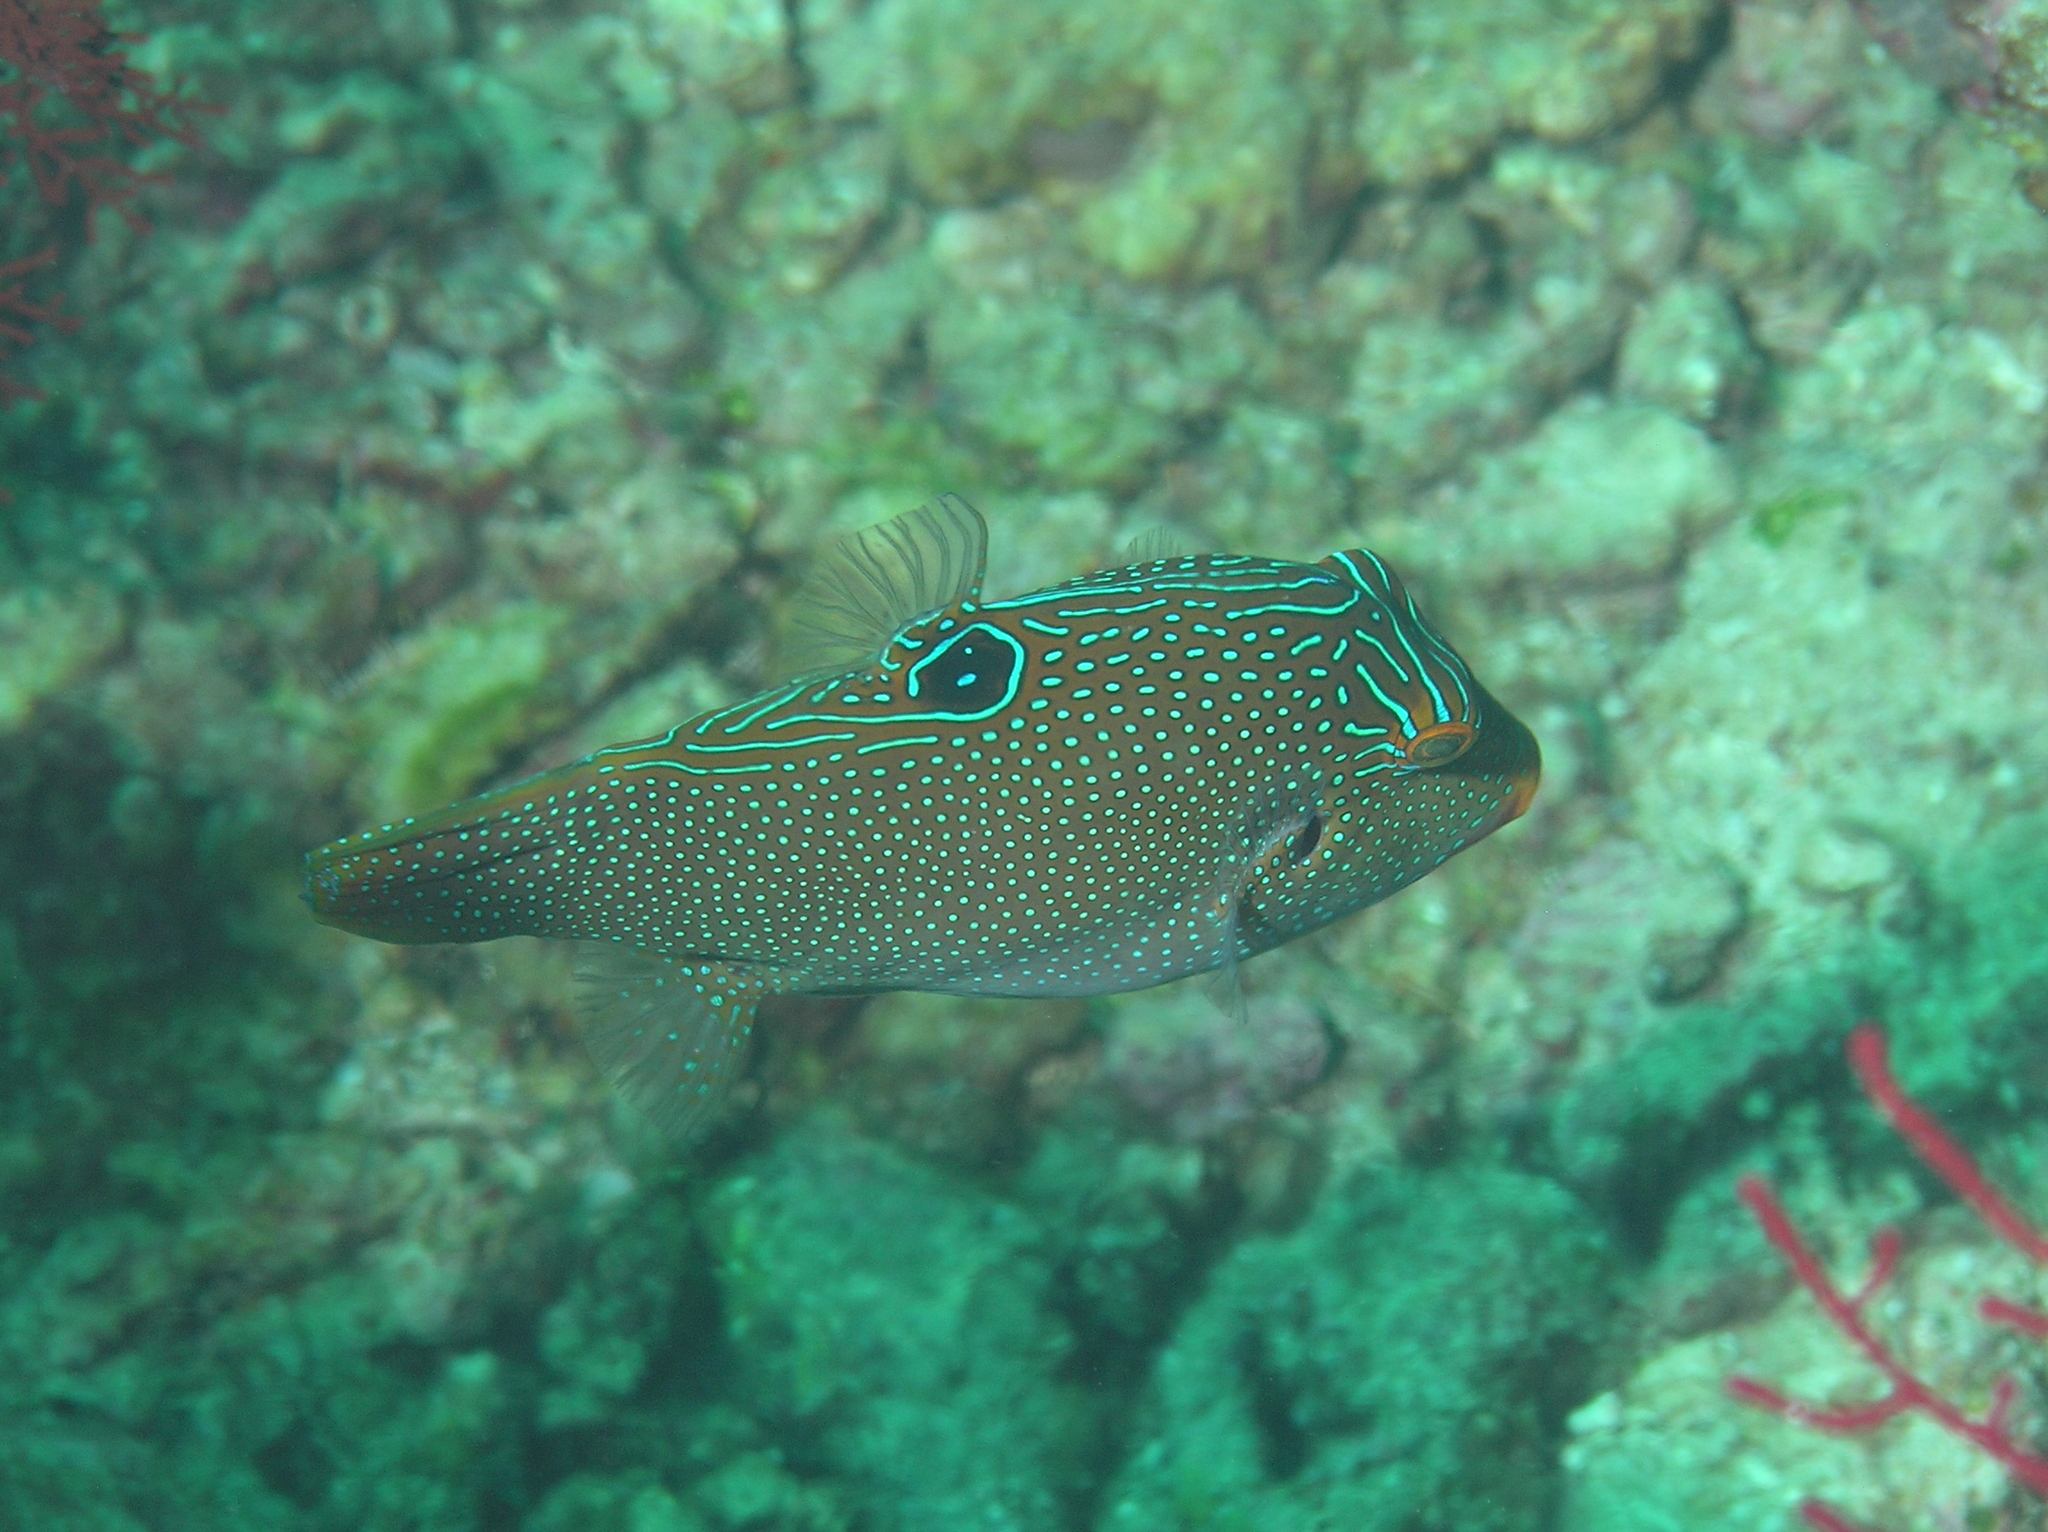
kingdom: Animalia
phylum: Chordata
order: Tetraodontiformes
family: Tetraodontidae
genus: Canthigaster
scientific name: Canthigaster papua
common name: False-eyed pufferfish
